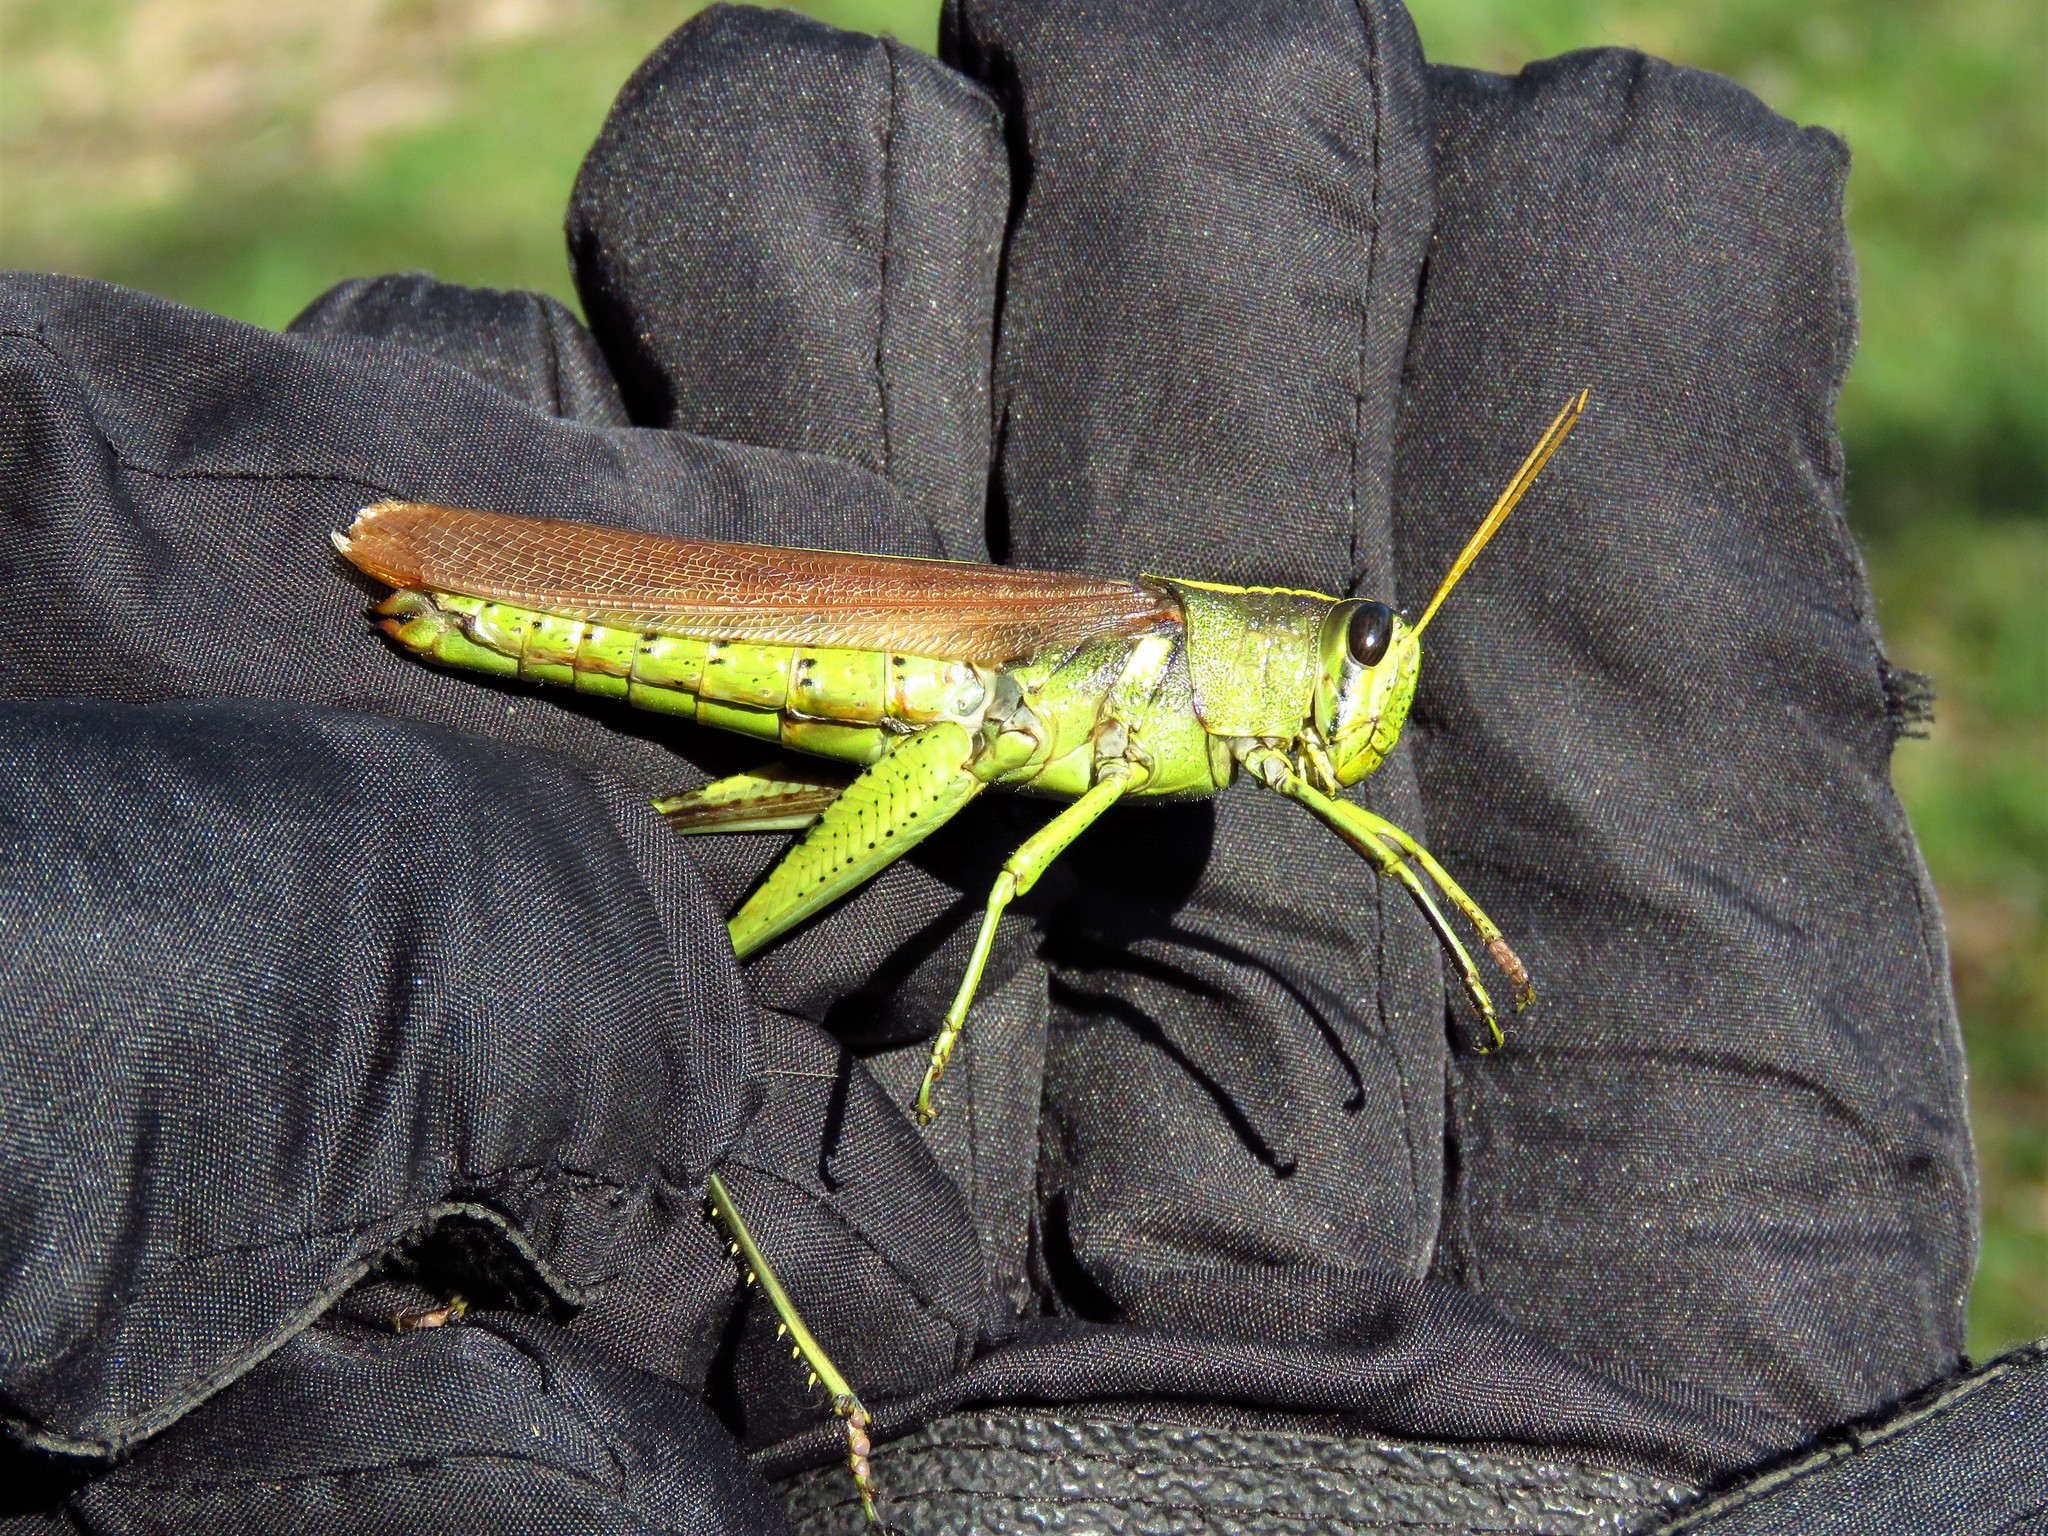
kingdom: Animalia
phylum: Arthropoda
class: Insecta
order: Orthoptera
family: Acrididae
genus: Schistocerca
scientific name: Schistocerca obscura
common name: Obscure bird grasshopper
